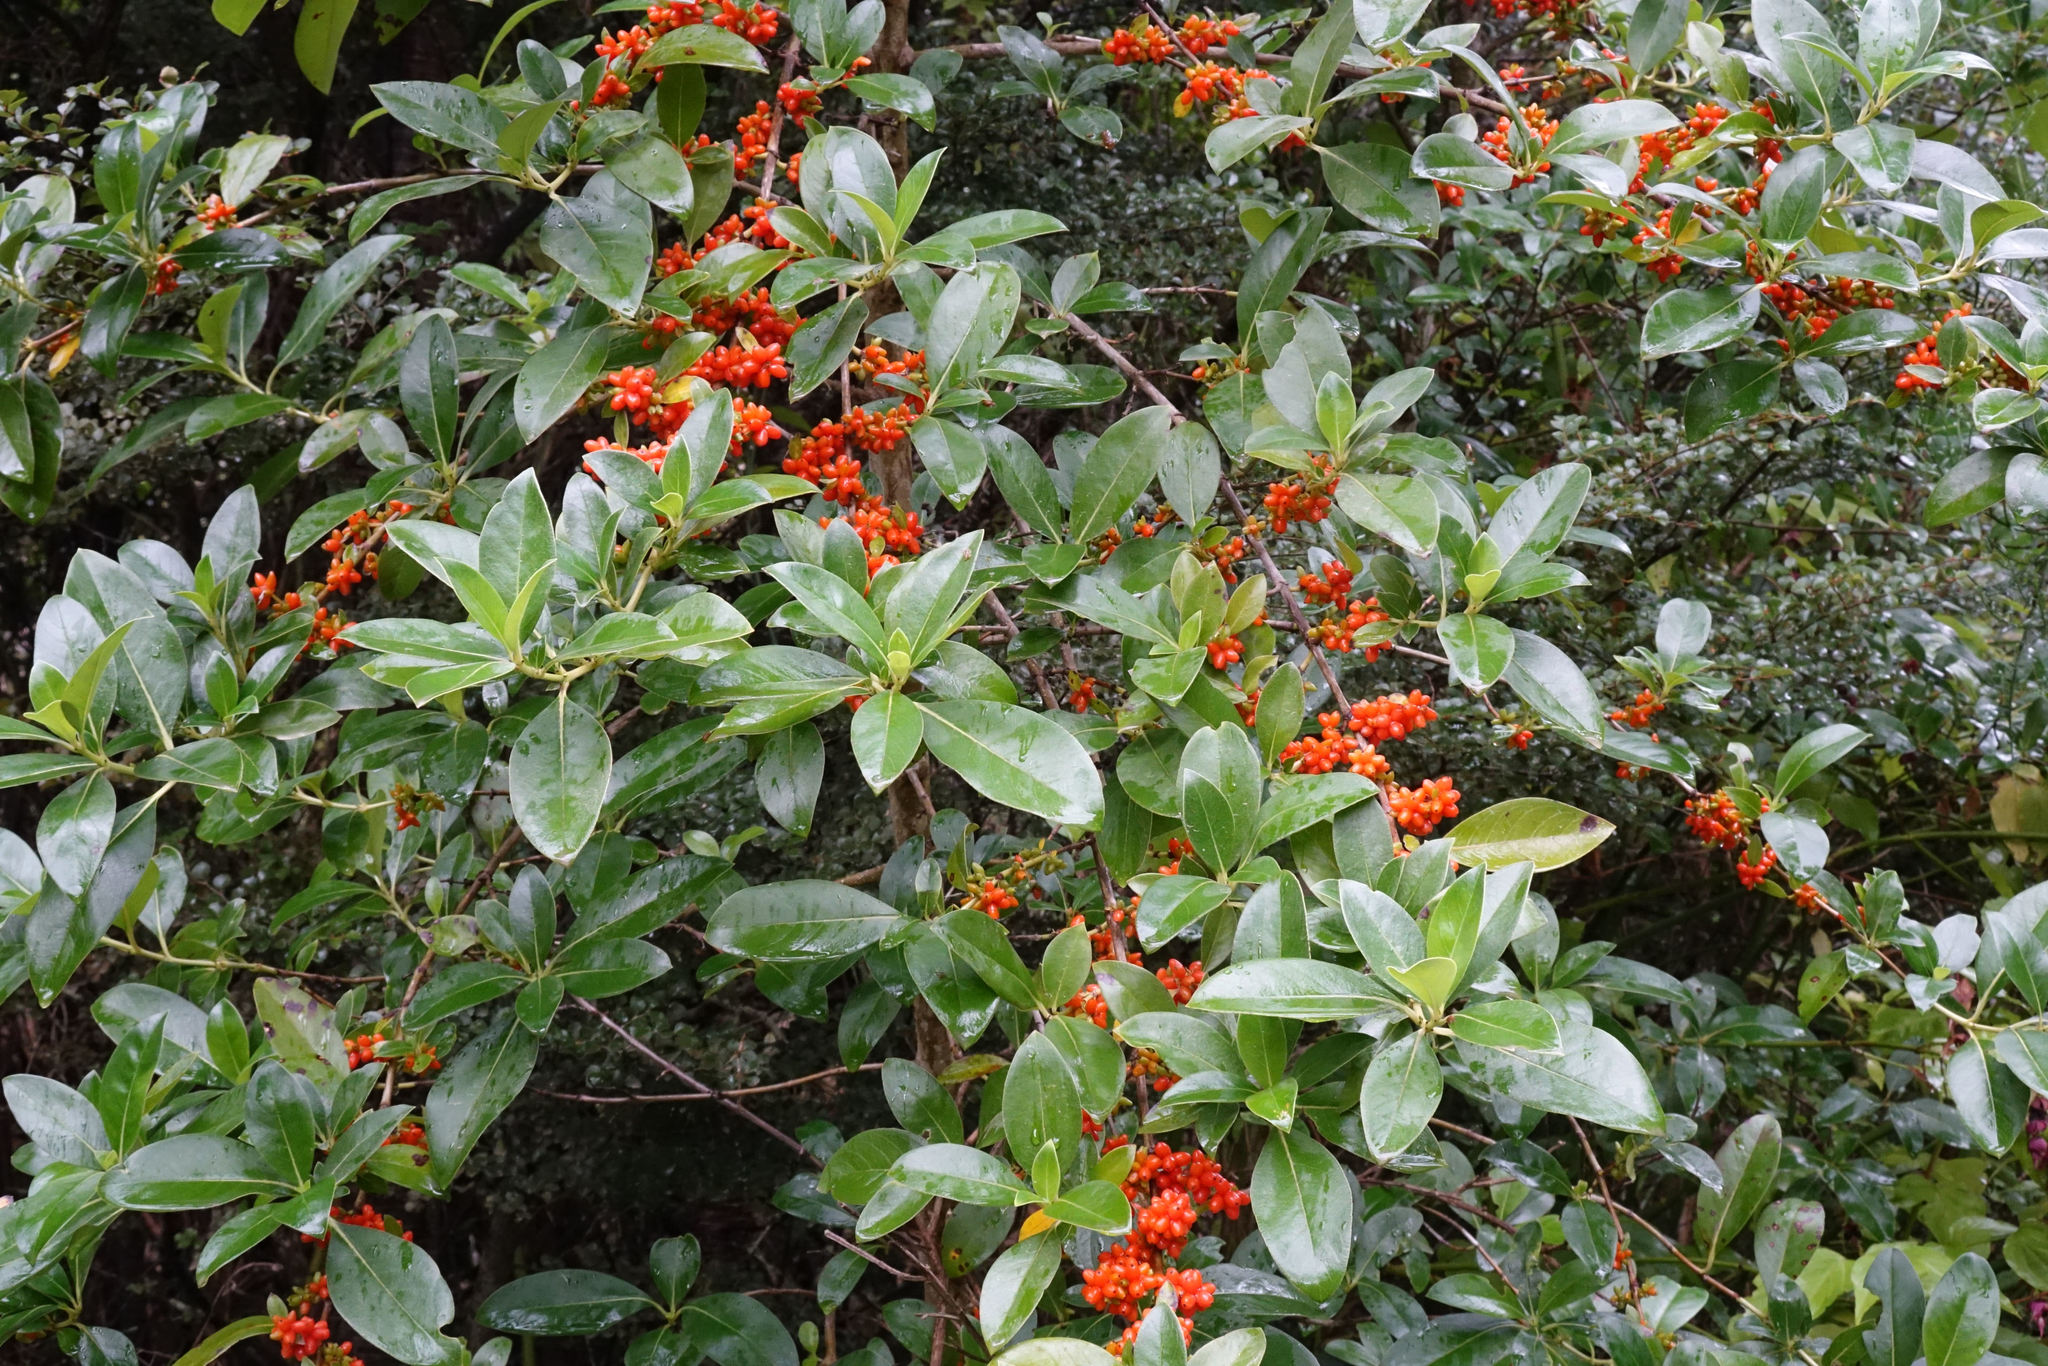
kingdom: Plantae
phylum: Tracheophyta
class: Magnoliopsida
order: Gentianales
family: Rubiaceae
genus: Coprosma
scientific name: Coprosma robusta
